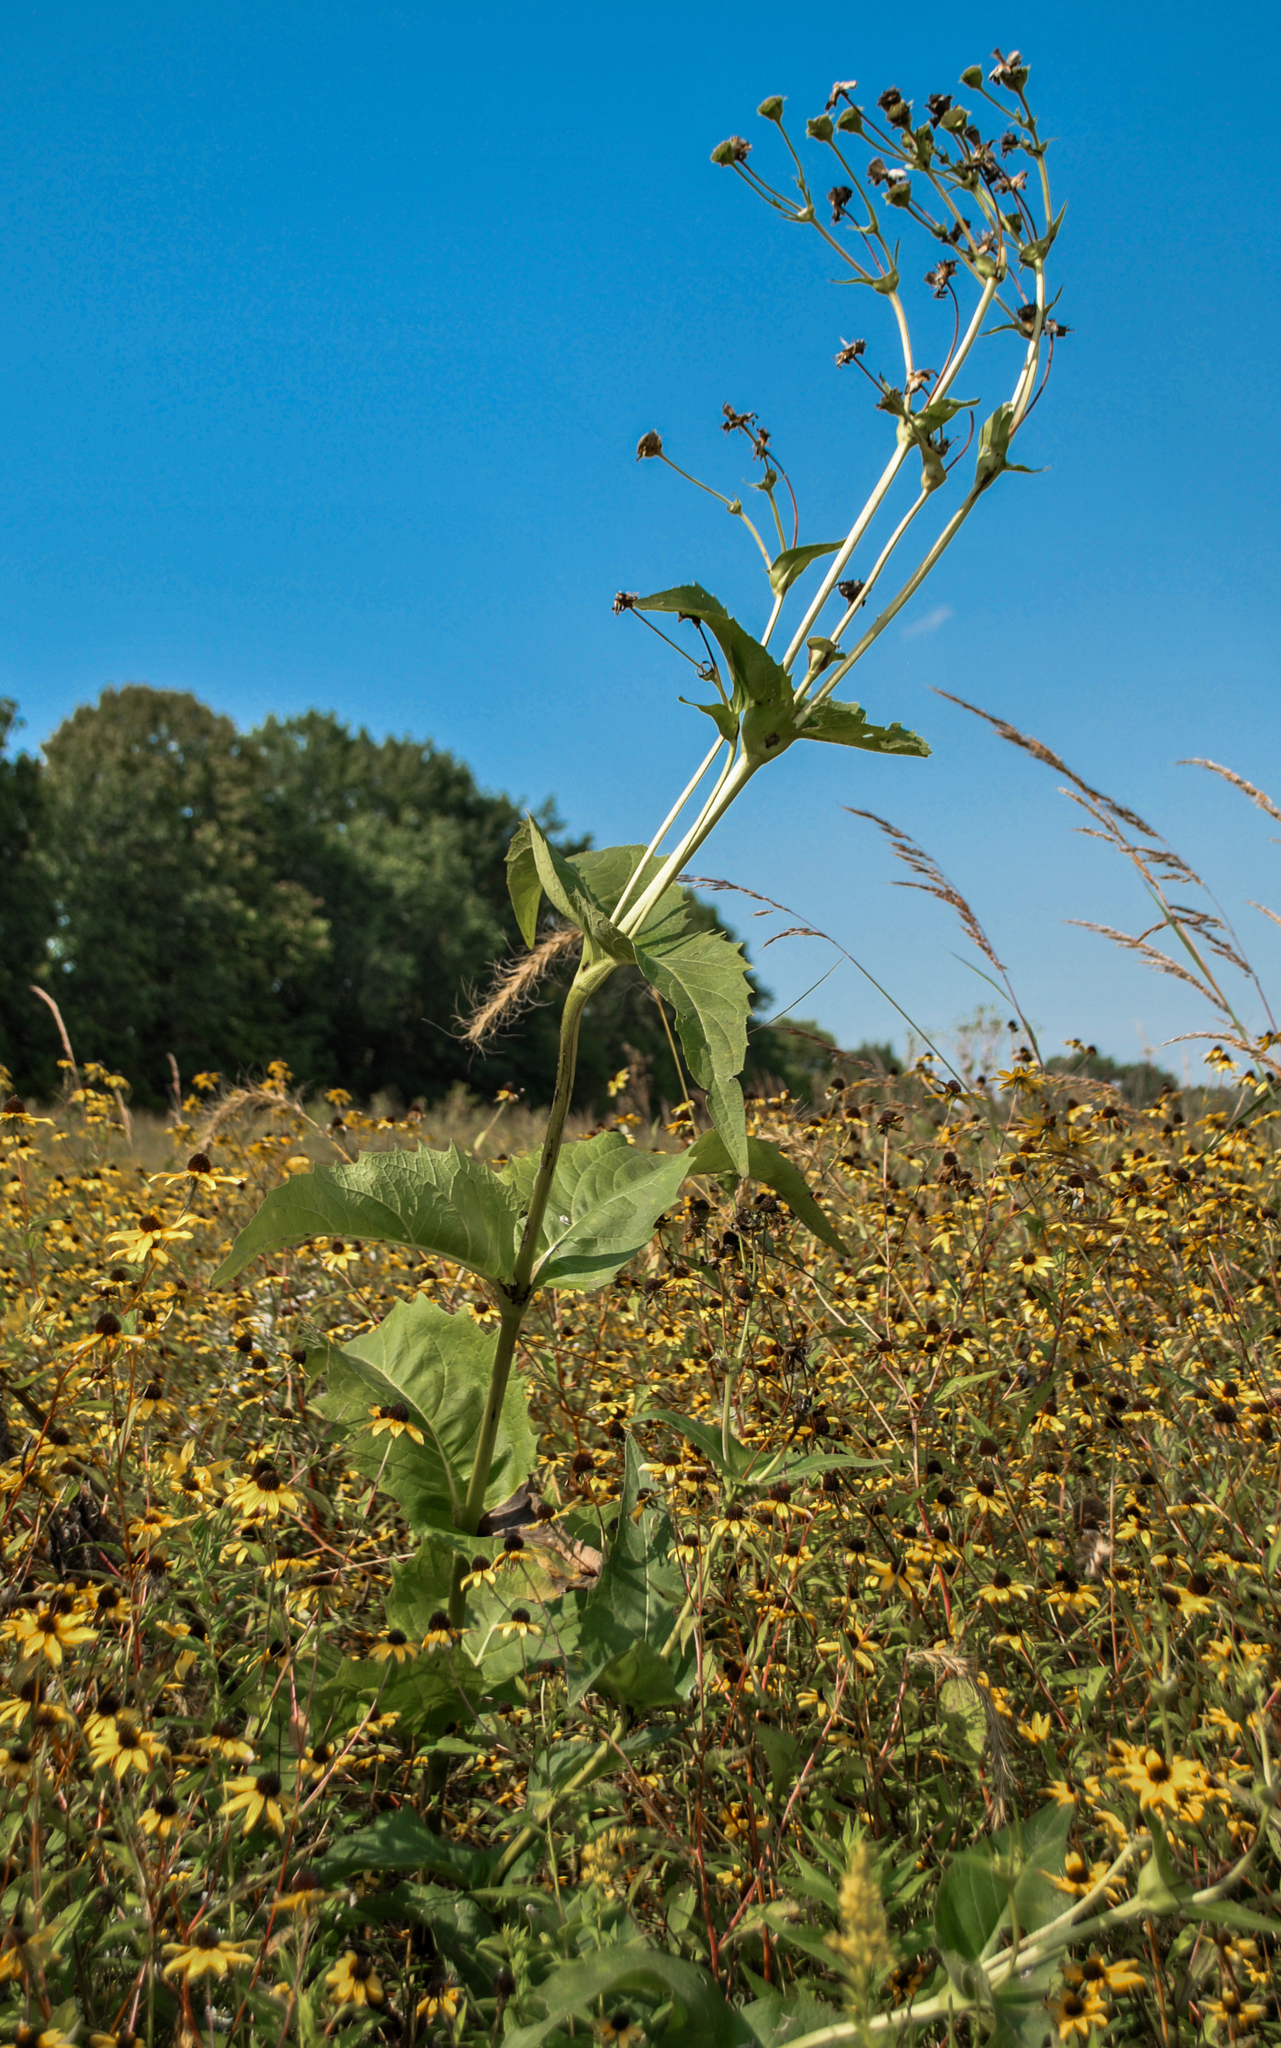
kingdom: Plantae
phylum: Tracheophyta
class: Magnoliopsida
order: Asterales
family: Asteraceae
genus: Silphium
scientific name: Silphium perfoliatum
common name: Cup-plant
